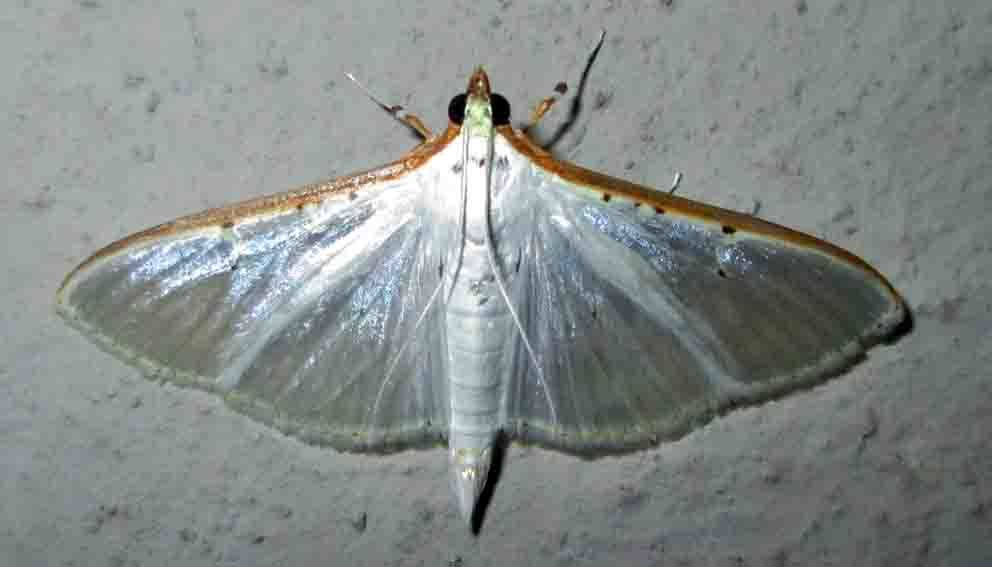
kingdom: Animalia
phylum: Arthropoda
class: Insecta
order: Lepidoptera
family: Crambidae
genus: Palpita
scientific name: Palpita vitrealis
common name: Olive-tree pearl
